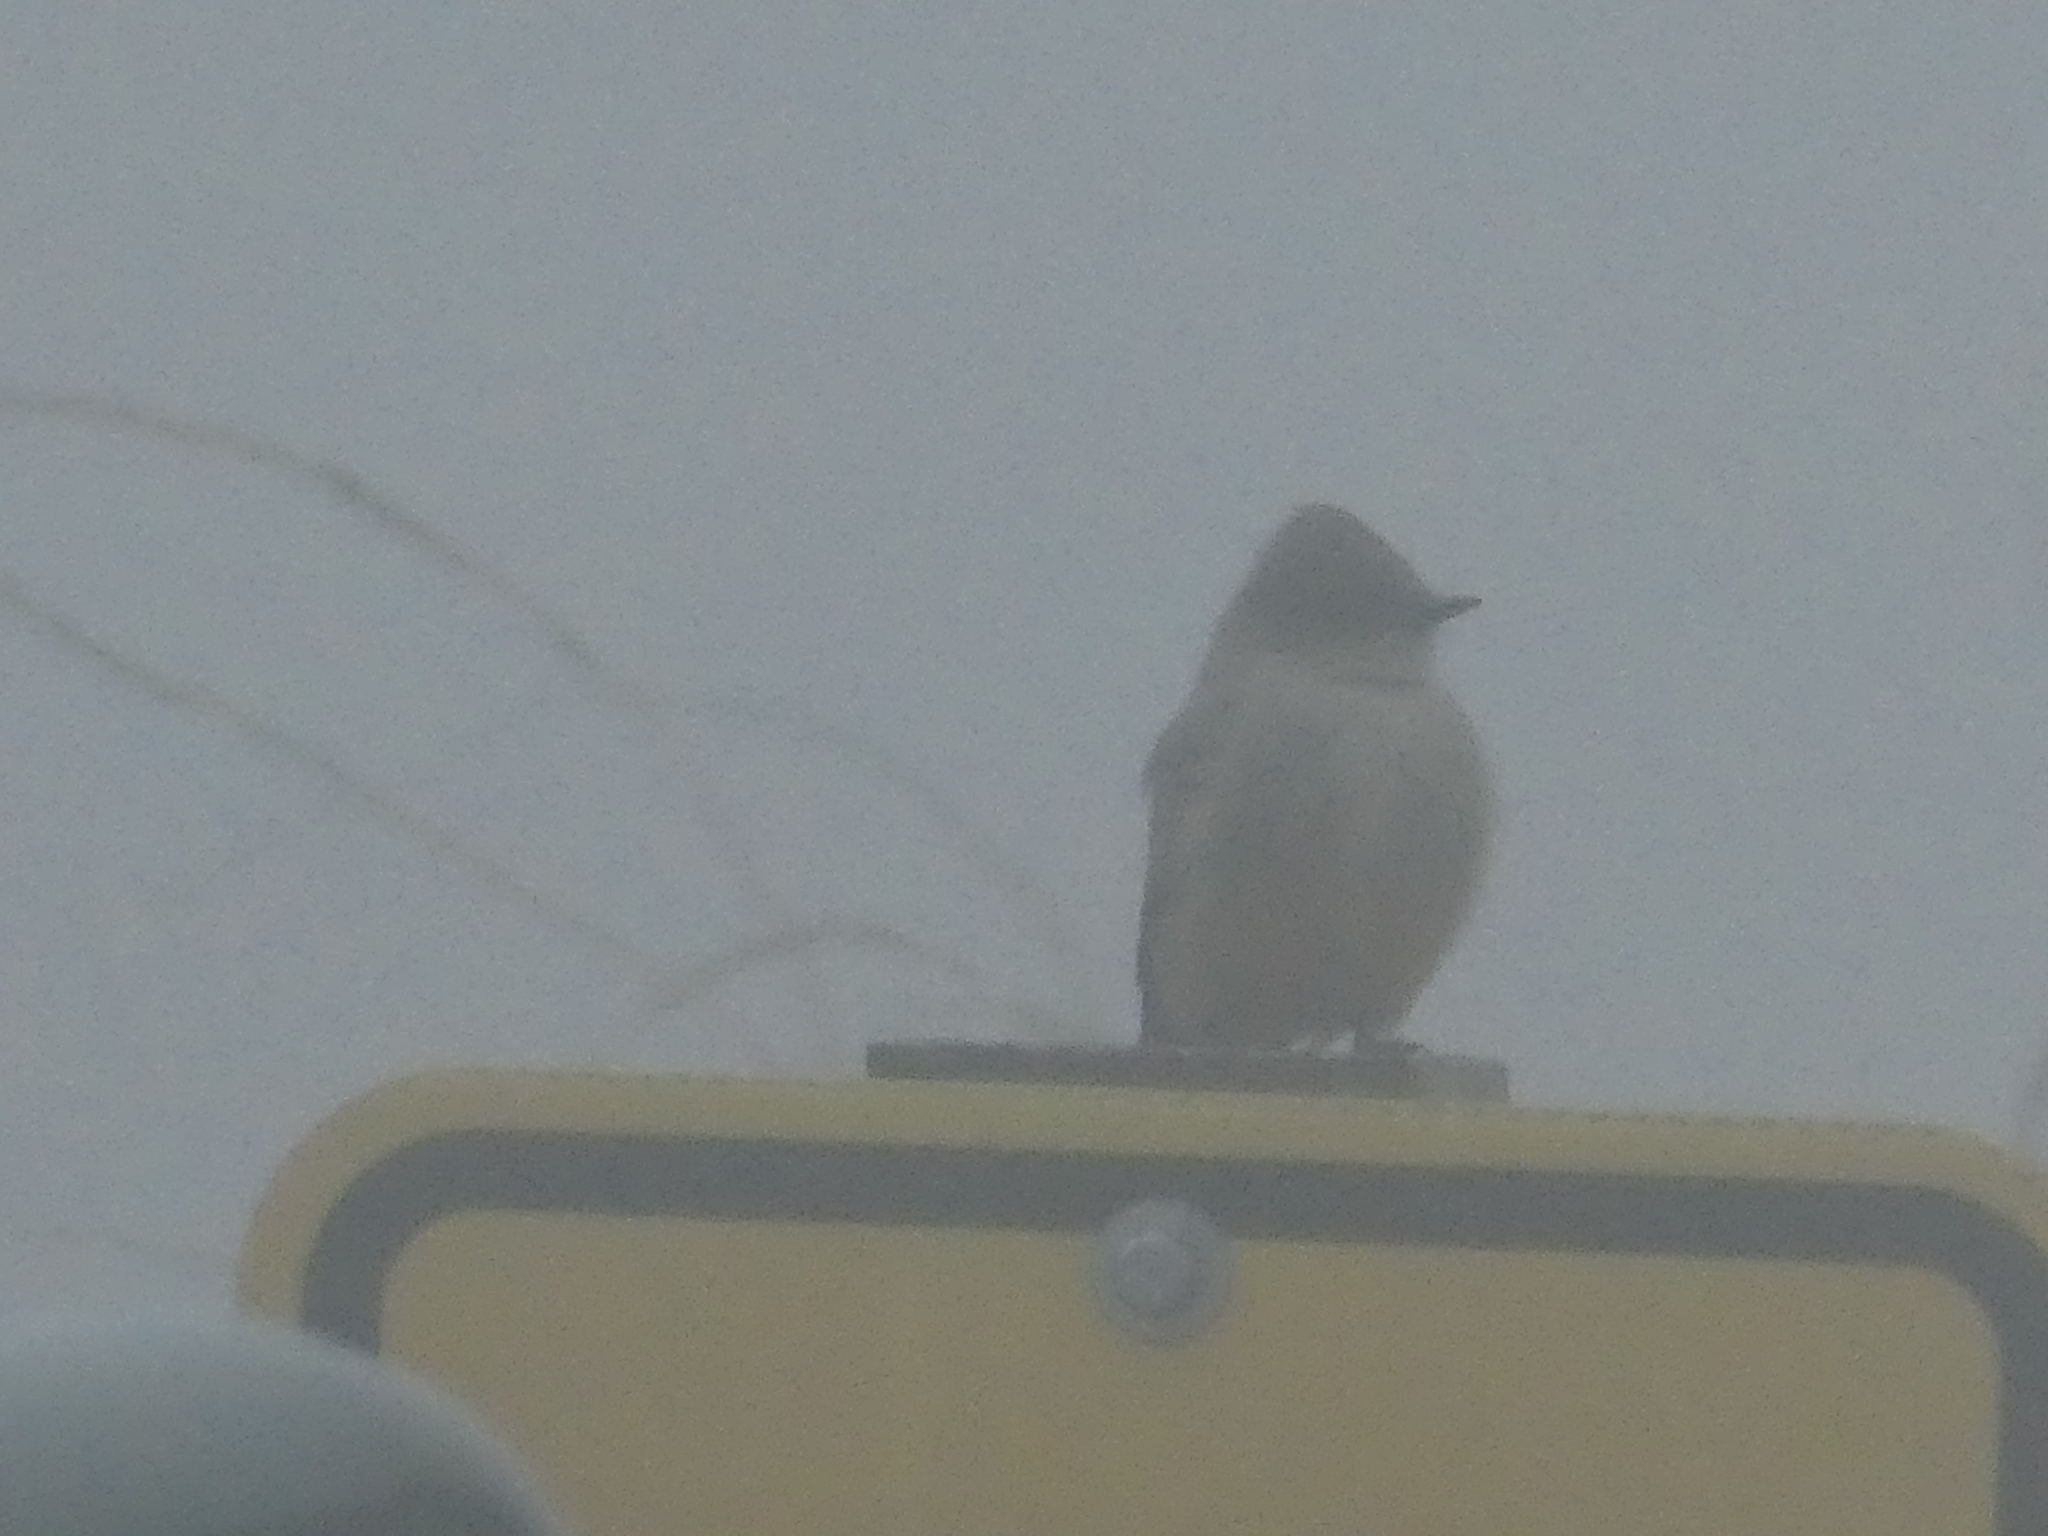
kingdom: Animalia
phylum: Chordata
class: Aves
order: Passeriformes
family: Tyrannidae
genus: Sayornis
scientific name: Sayornis saya
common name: Say's phoebe
